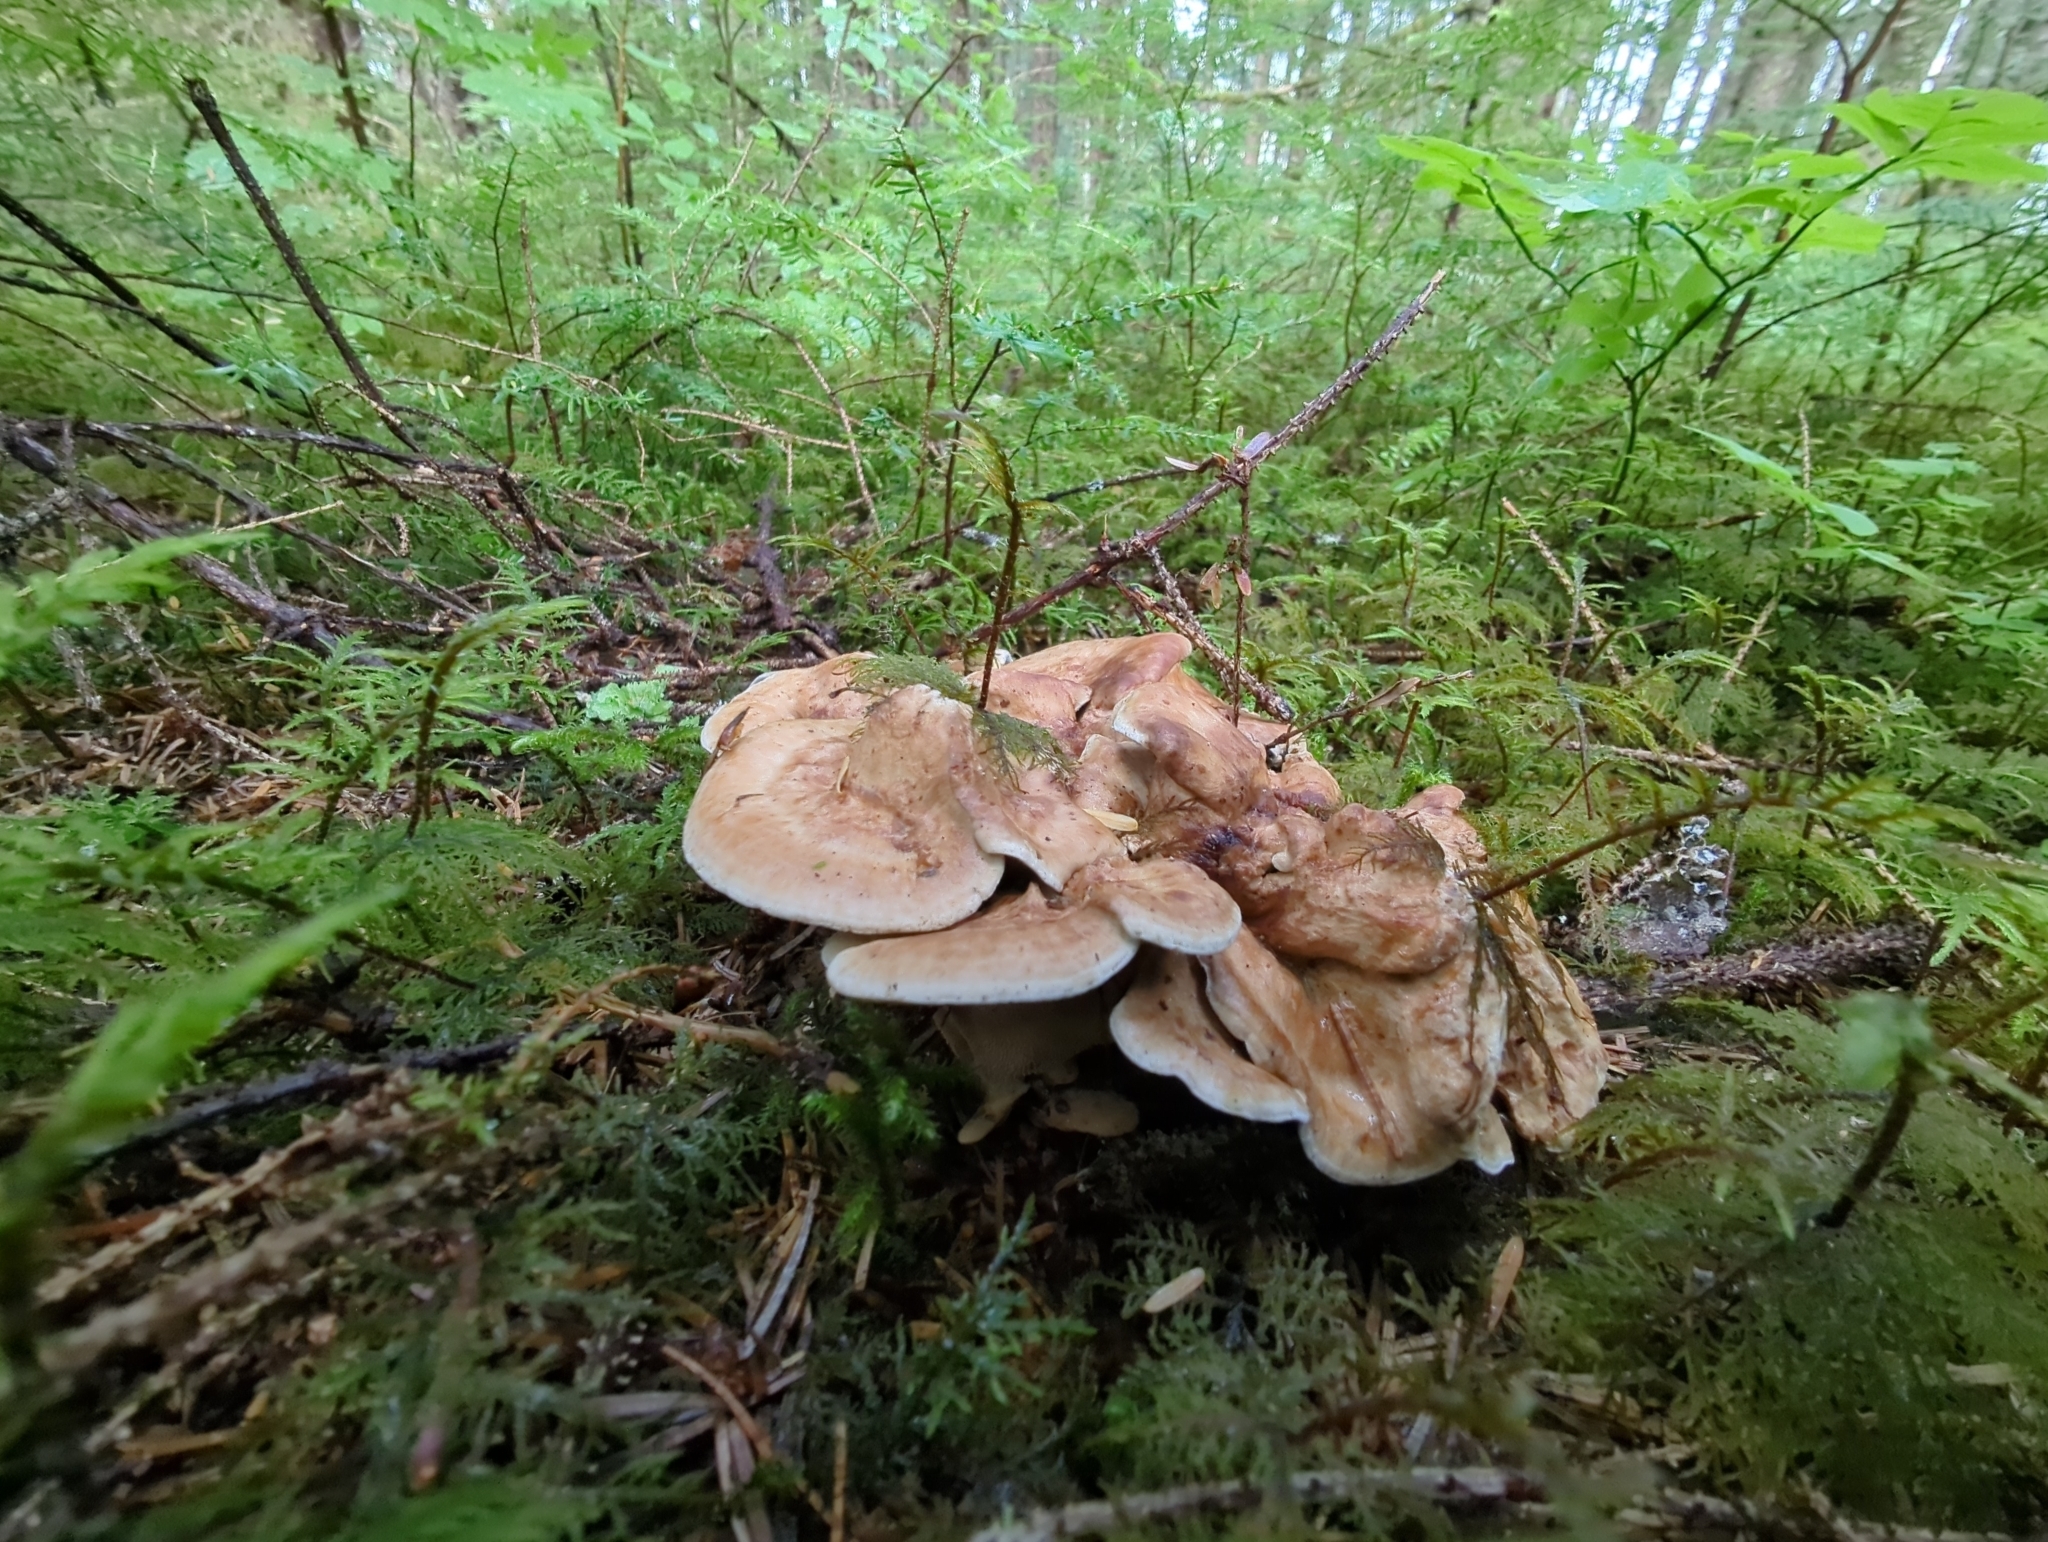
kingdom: Fungi
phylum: Basidiomycota
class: Agaricomycetes
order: Thelephorales
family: Bankeraceae
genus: Sarcodon
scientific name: Sarcodon stereosarcinon
